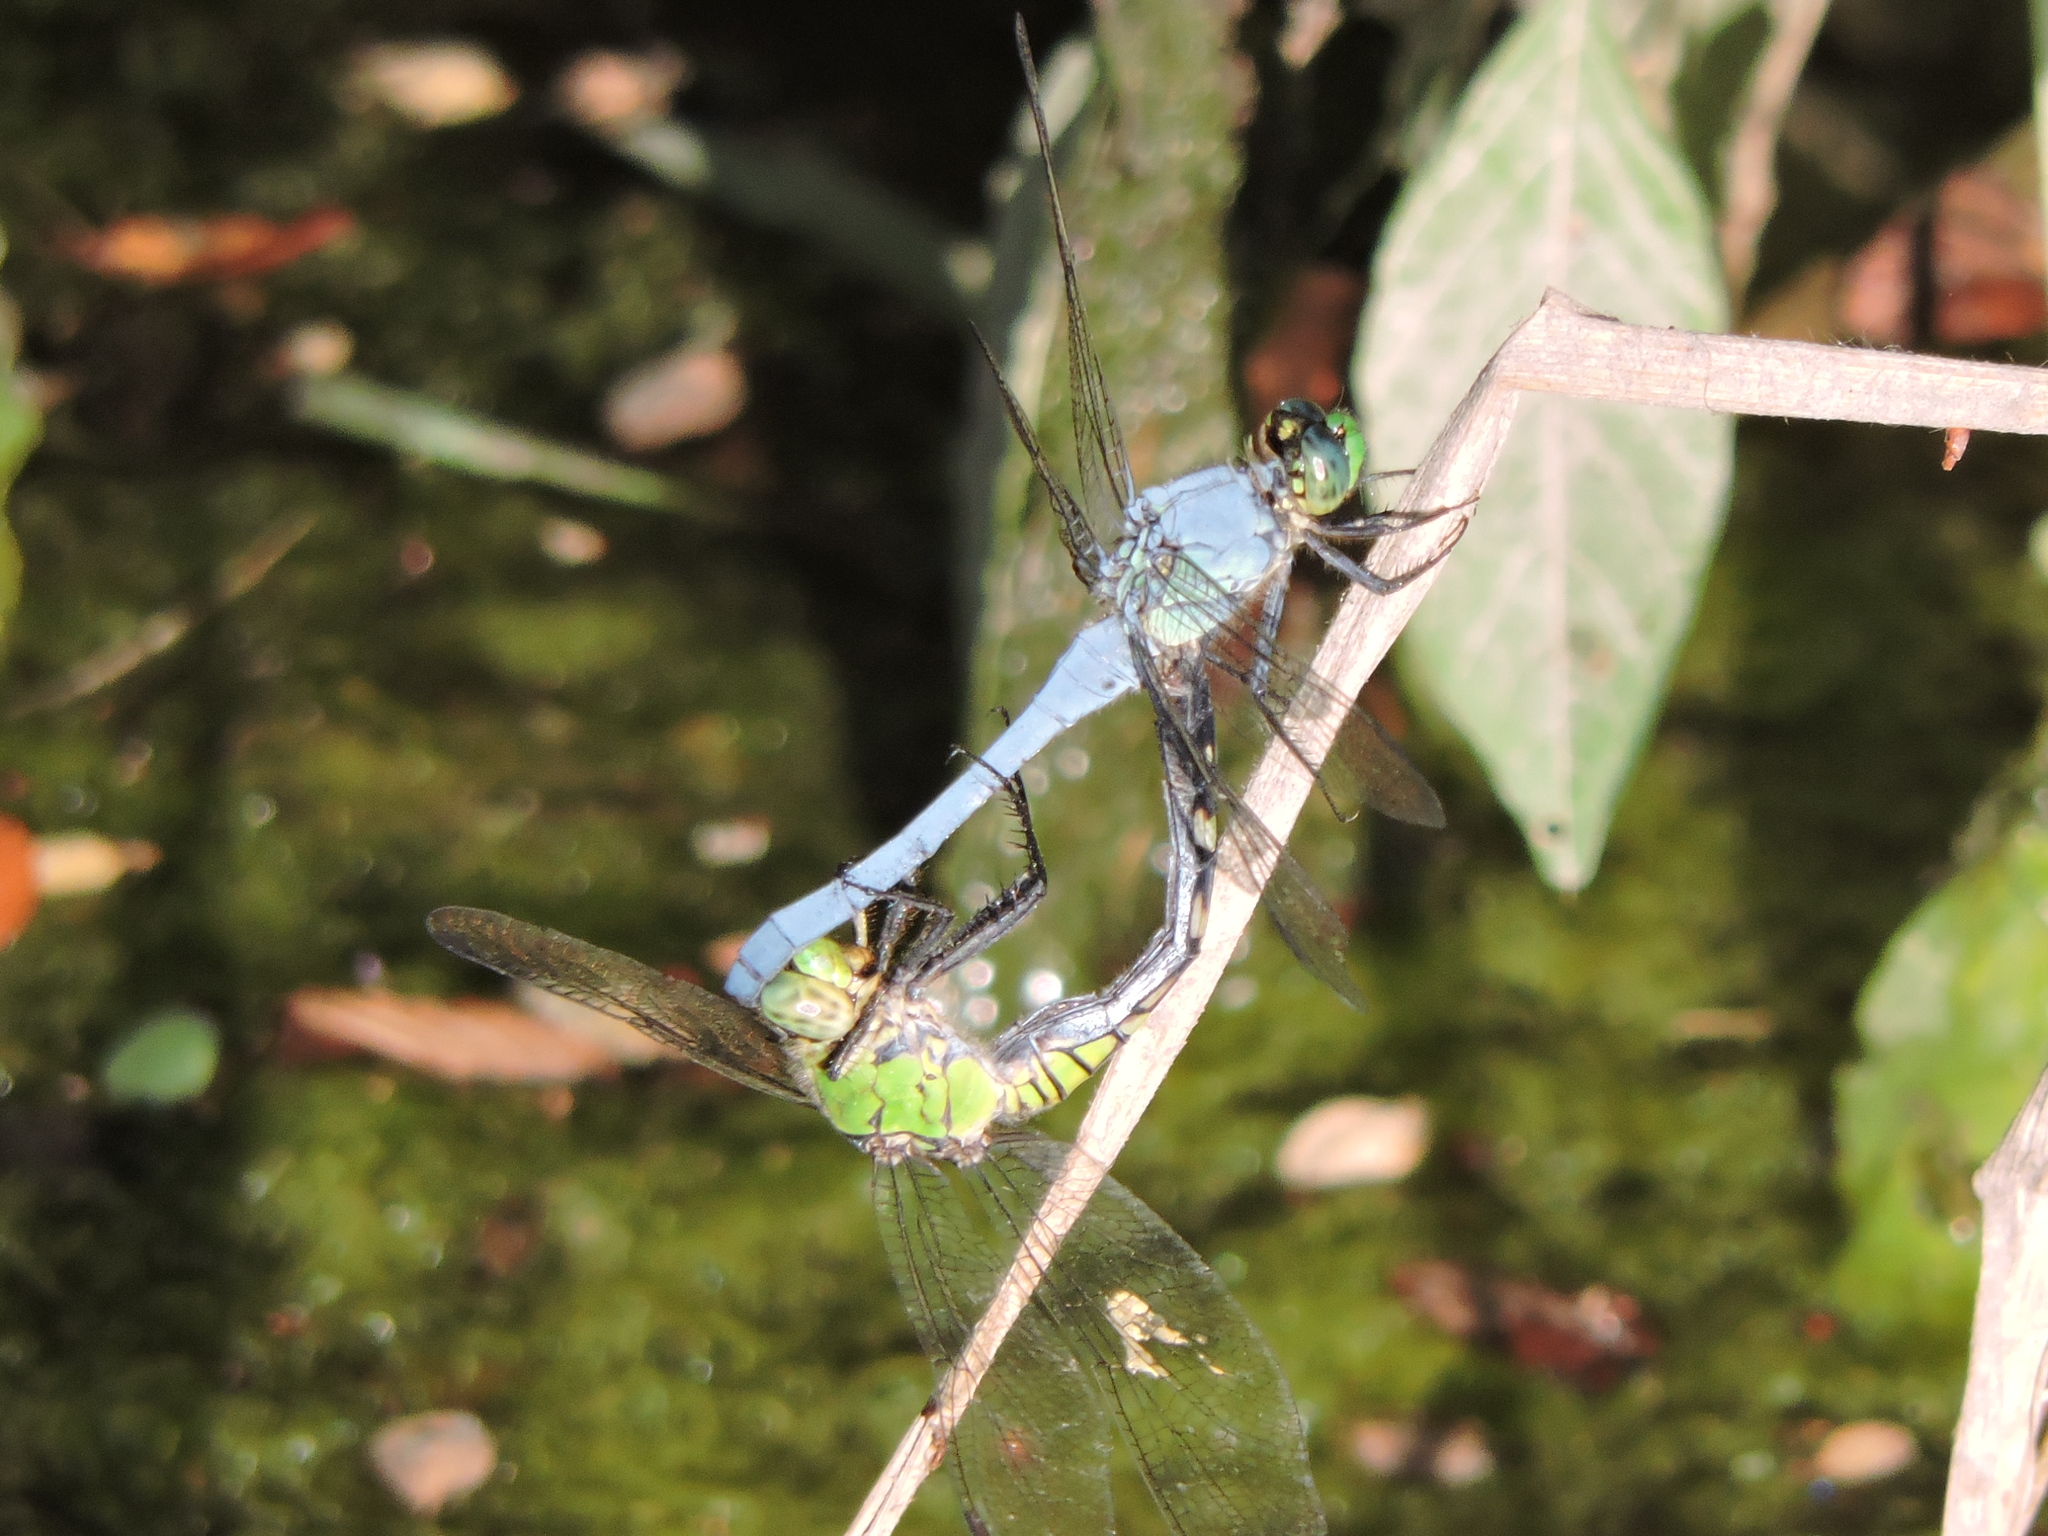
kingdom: Animalia
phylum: Arthropoda
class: Insecta
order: Odonata
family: Libellulidae
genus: Erythemis
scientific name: Erythemis simplicicollis
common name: Eastern pondhawk
